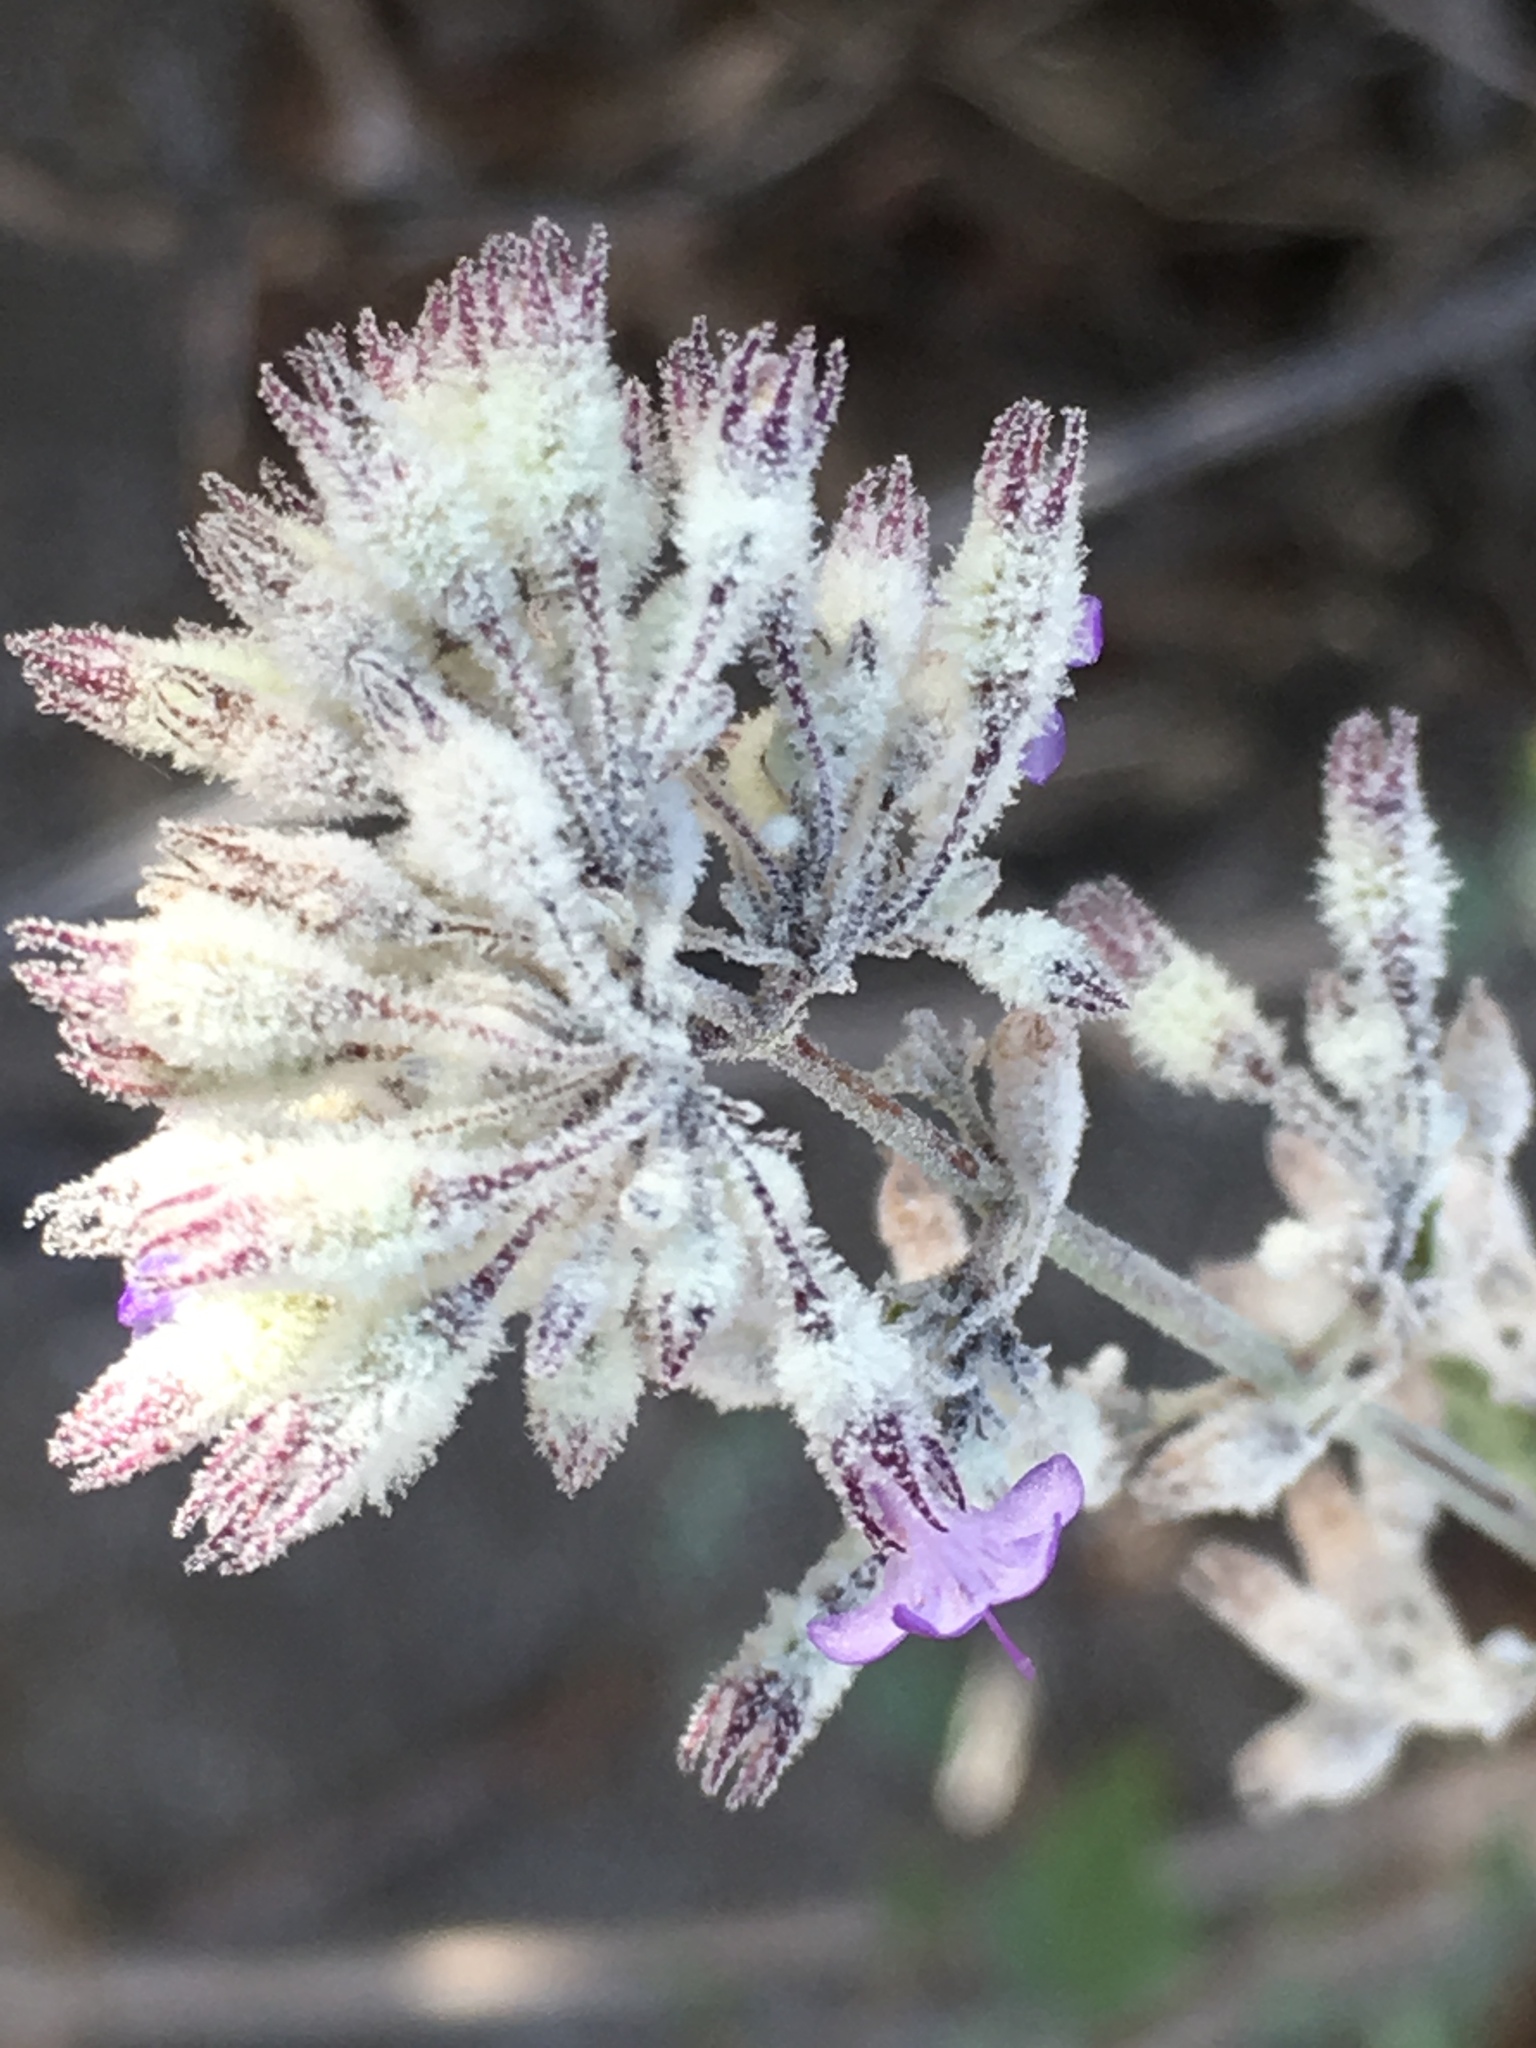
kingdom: Plantae
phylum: Tracheophyta
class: Magnoliopsida
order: Lamiales
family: Lamiaceae
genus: Condea
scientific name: Condea emoryi
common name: Chia
